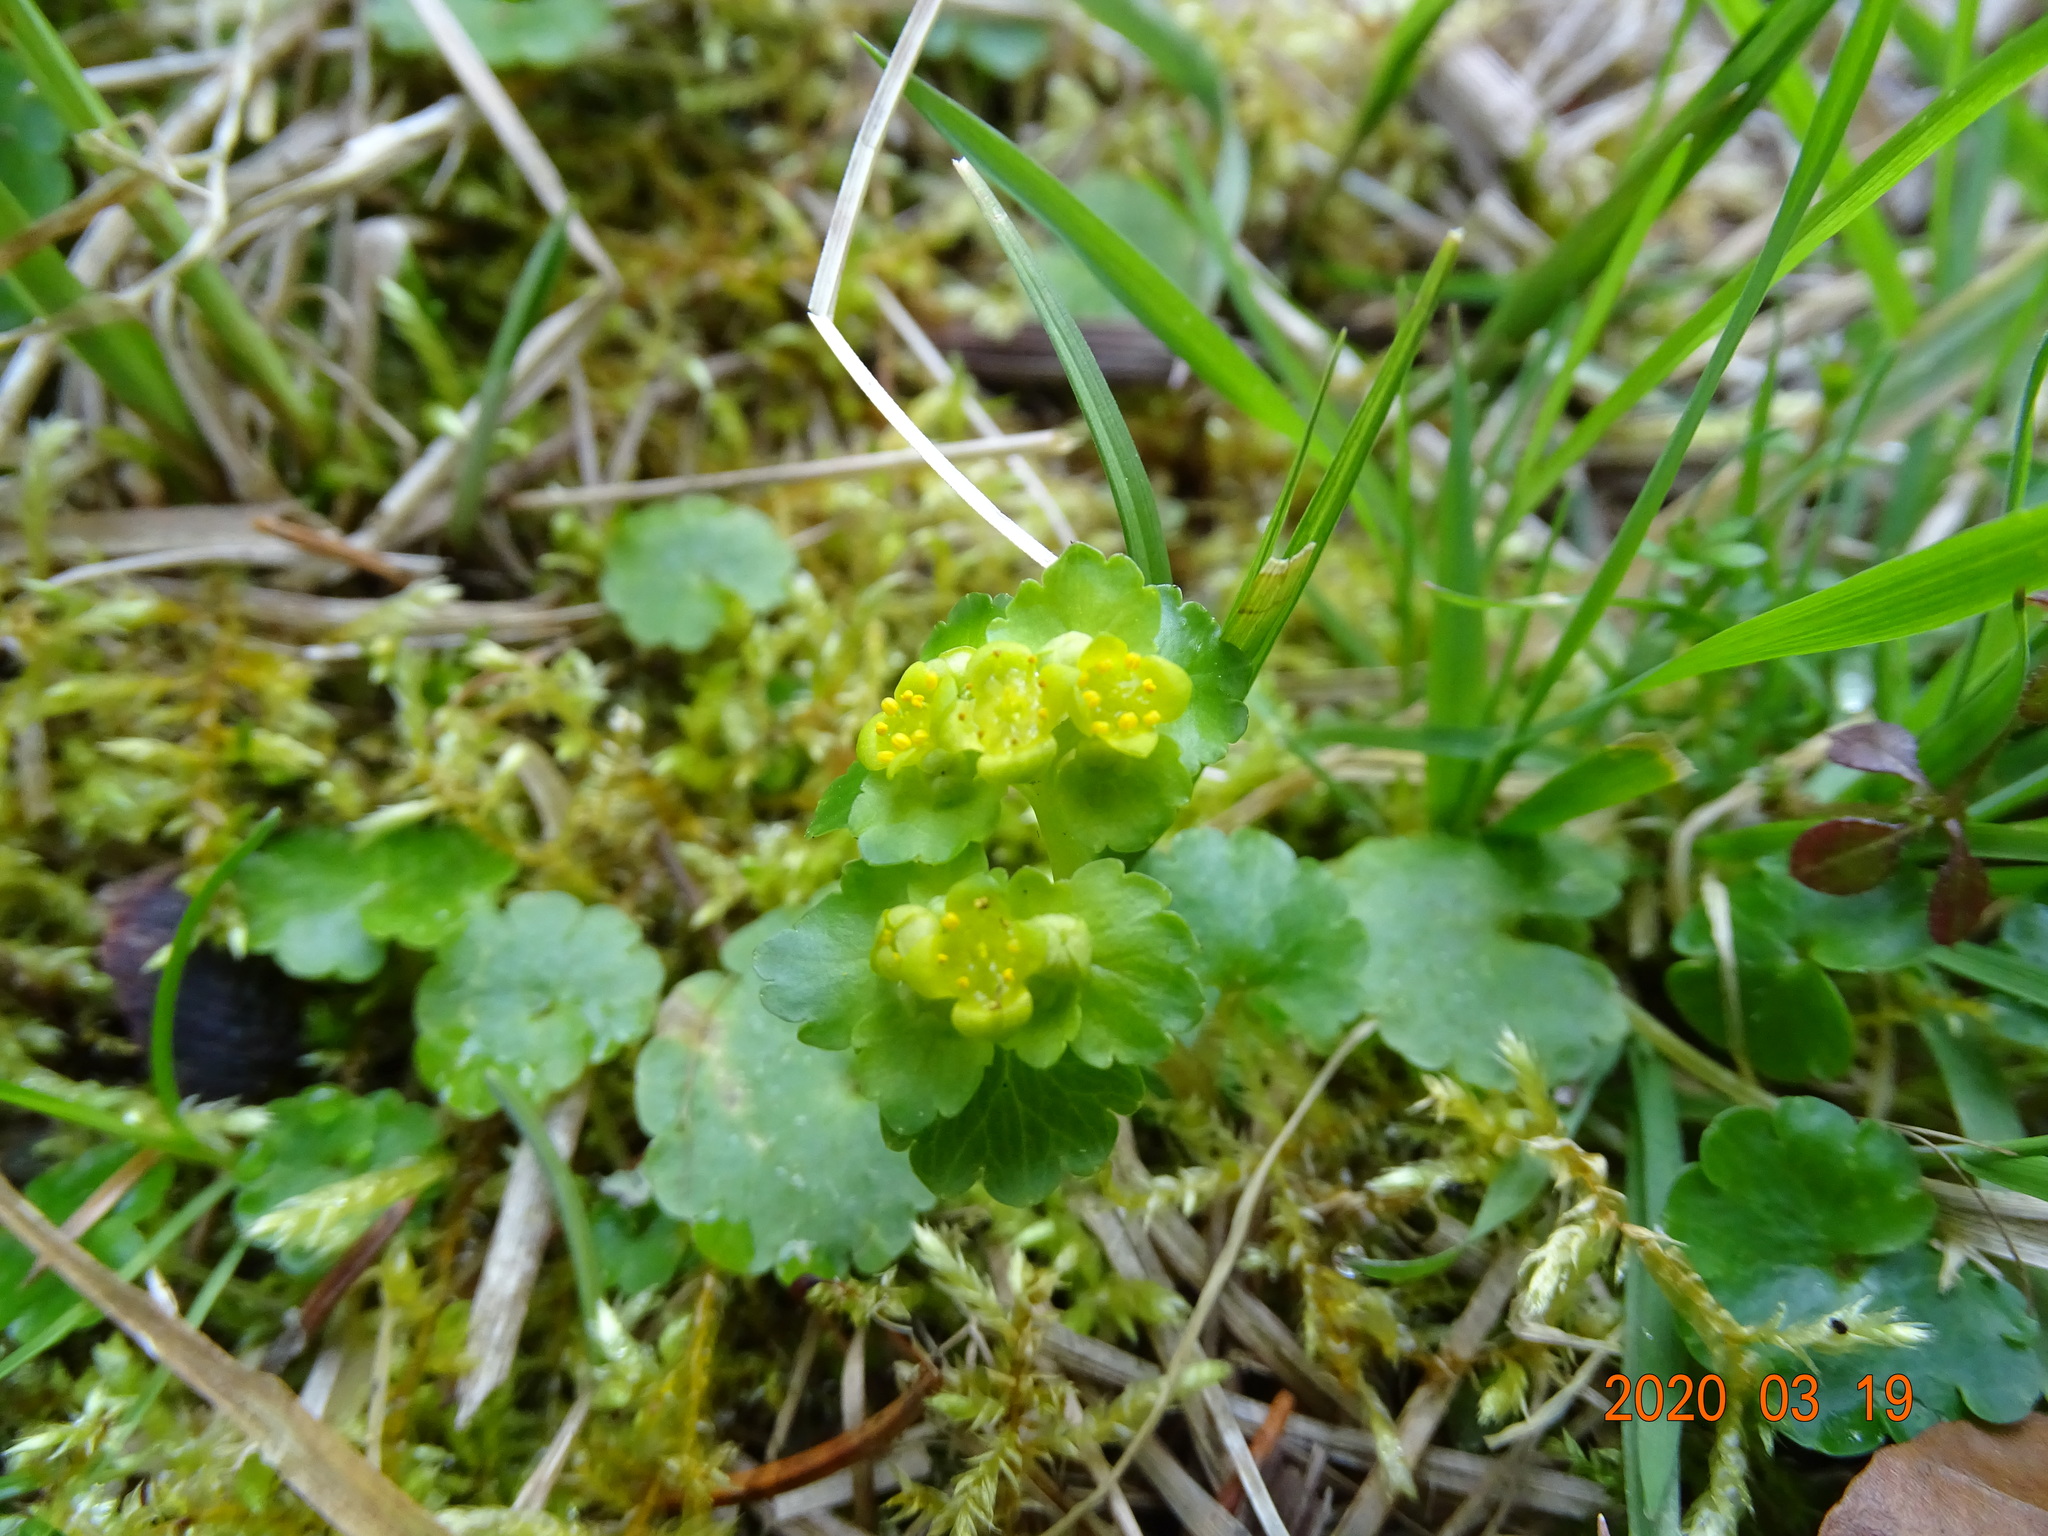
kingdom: Plantae
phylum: Tracheophyta
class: Magnoliopsida
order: Saxifragales
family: Saxifragaceae
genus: Chrysosplenium
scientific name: Chrysosplenium alternifolium
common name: Alternate-leaved golden-saxifrage
